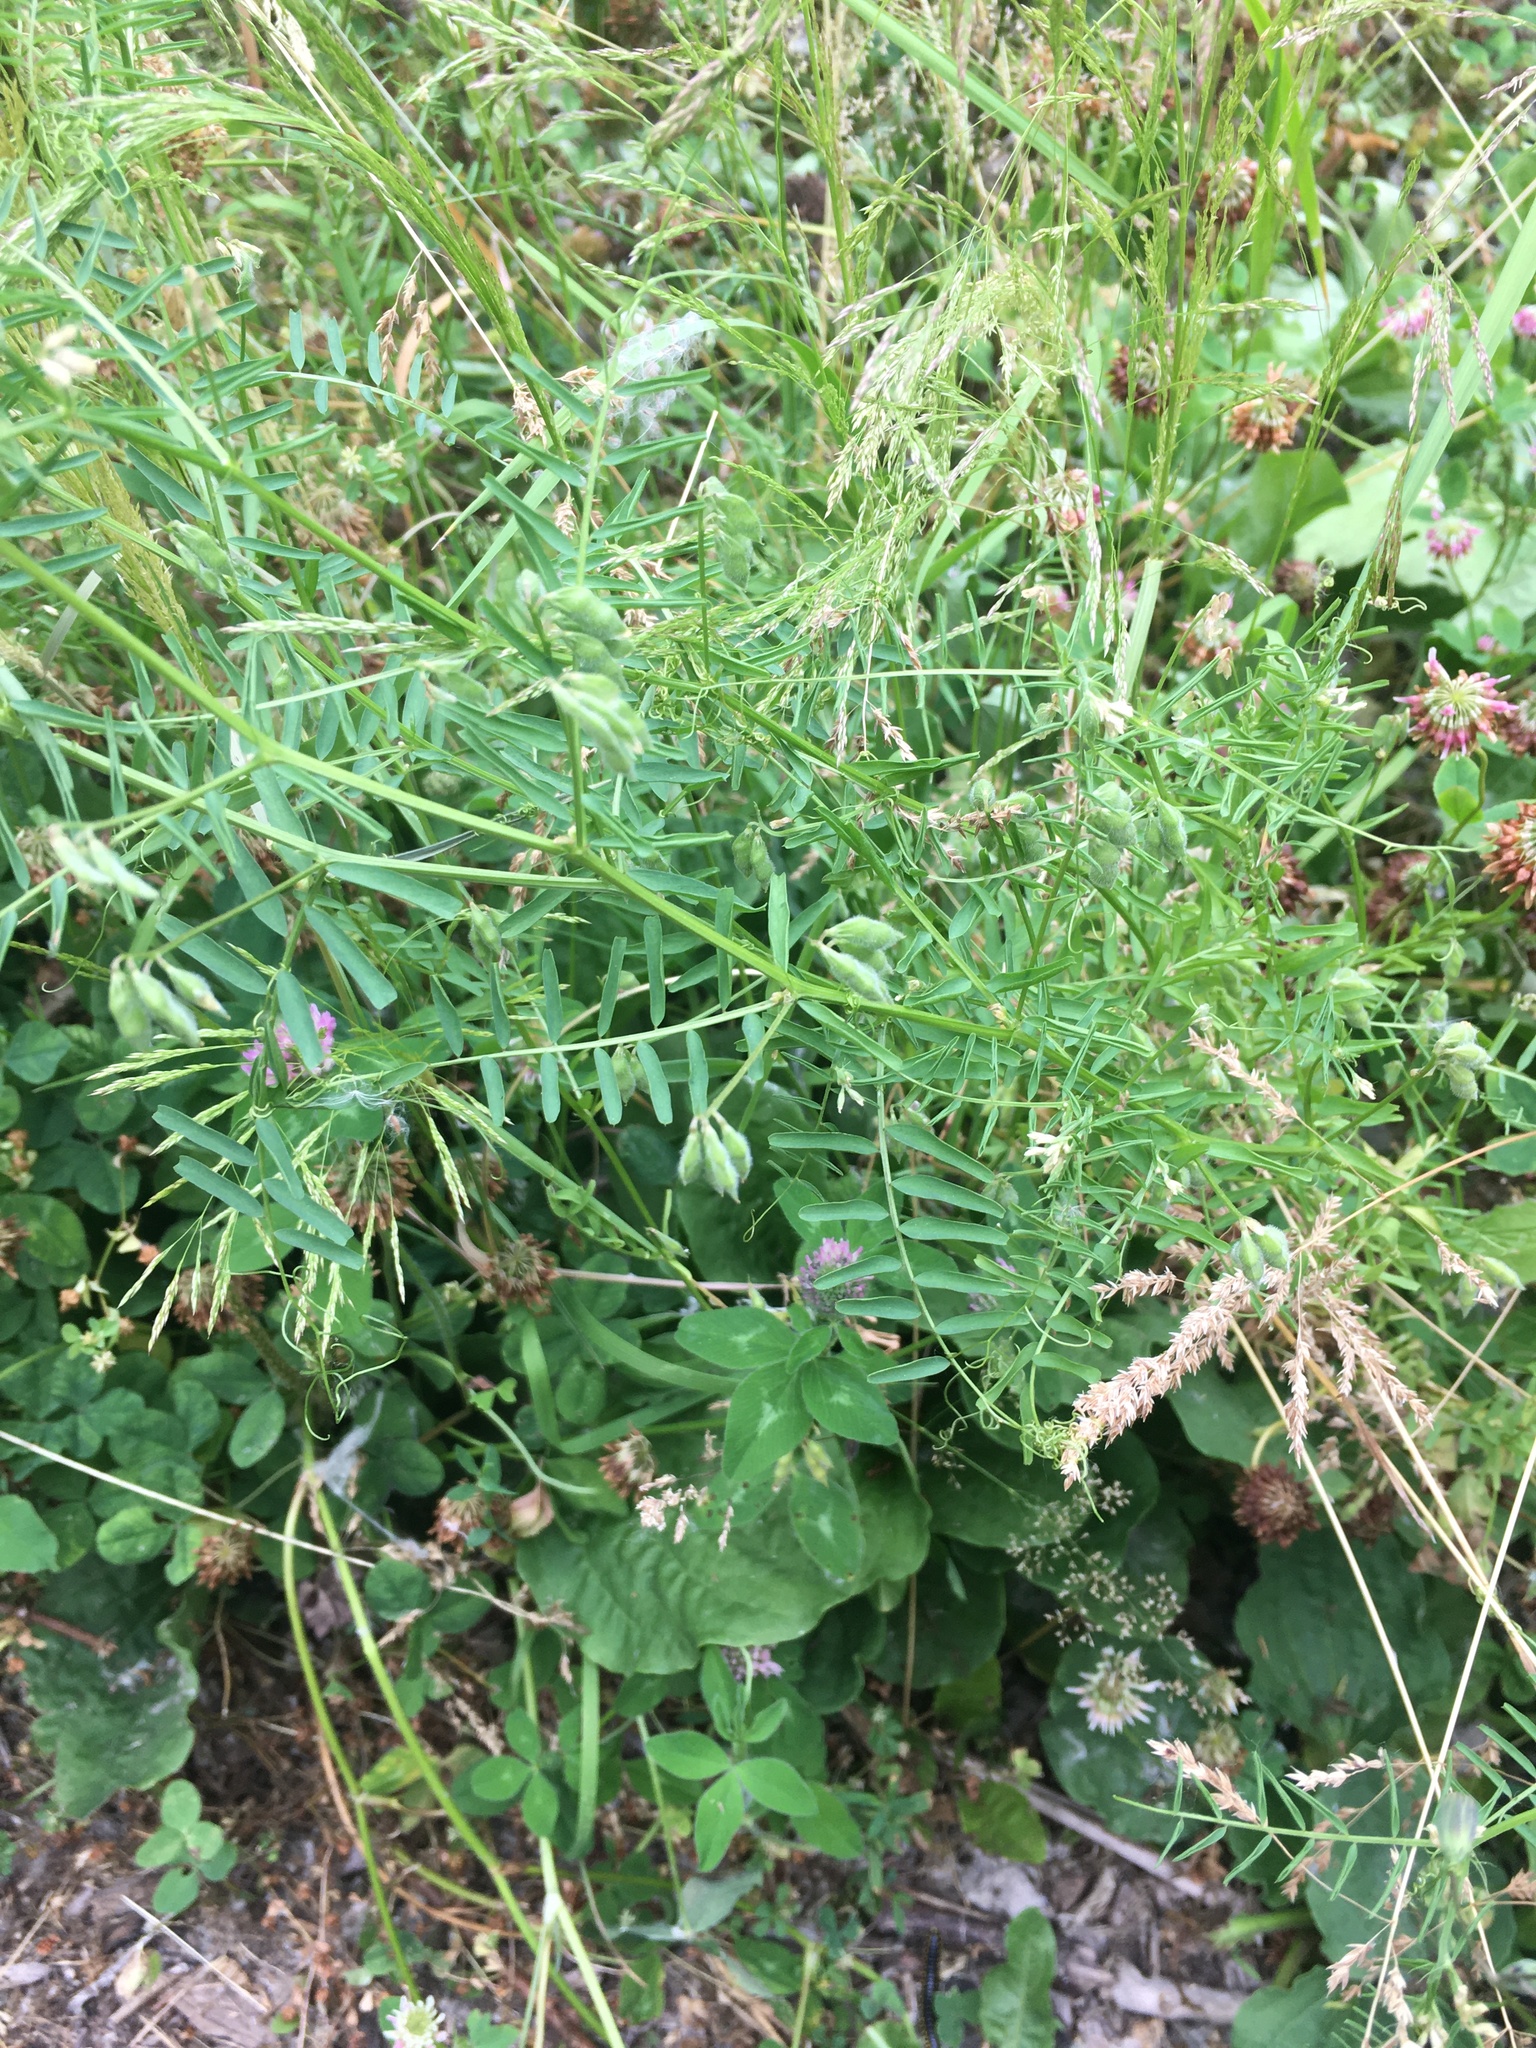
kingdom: Plantae
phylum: Tracheophyta
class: Magnoliopsida
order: Fabales
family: Fabaceae
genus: Vicia
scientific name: Vicia hirsuta
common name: Tiny vetch
